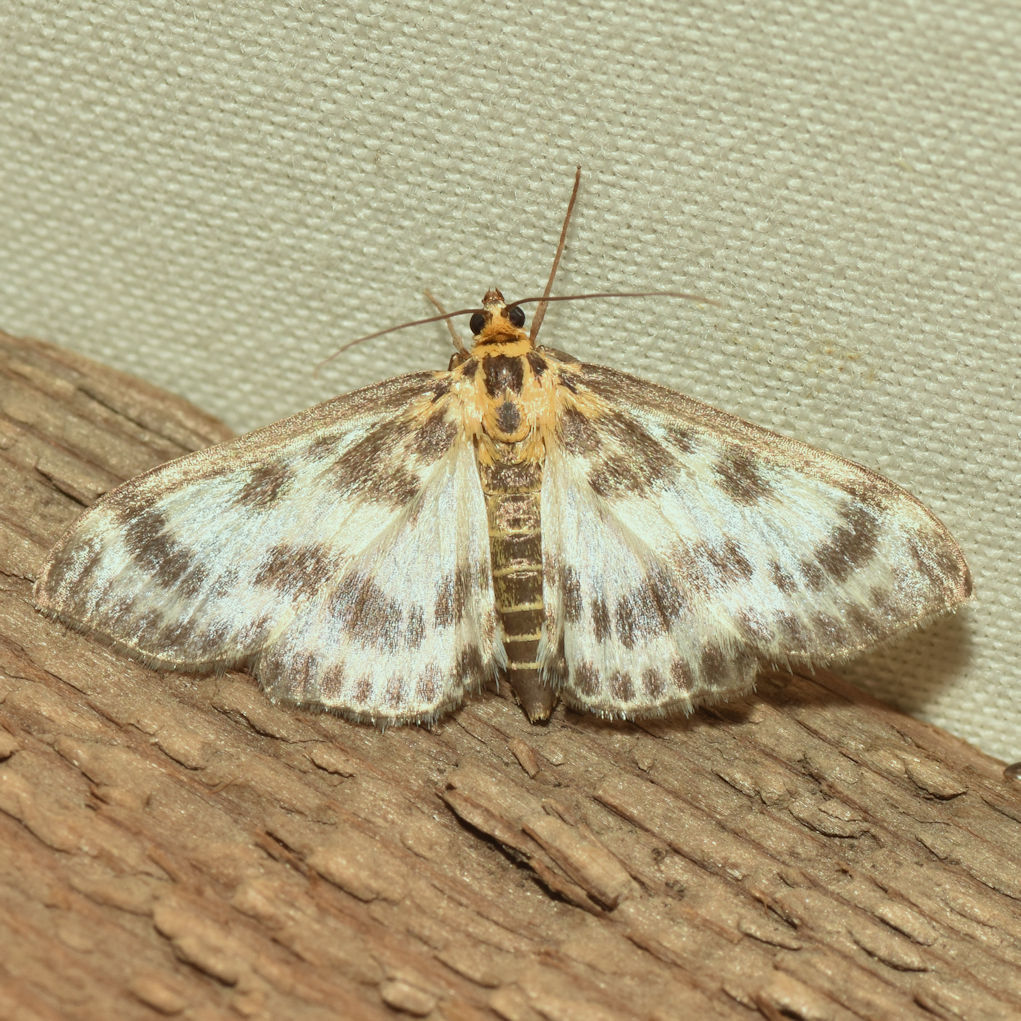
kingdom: Animalia
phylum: Arthropoda
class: Insecta
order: Lepidoptera
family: Crambidae
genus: Anania
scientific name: Anania hortulata
